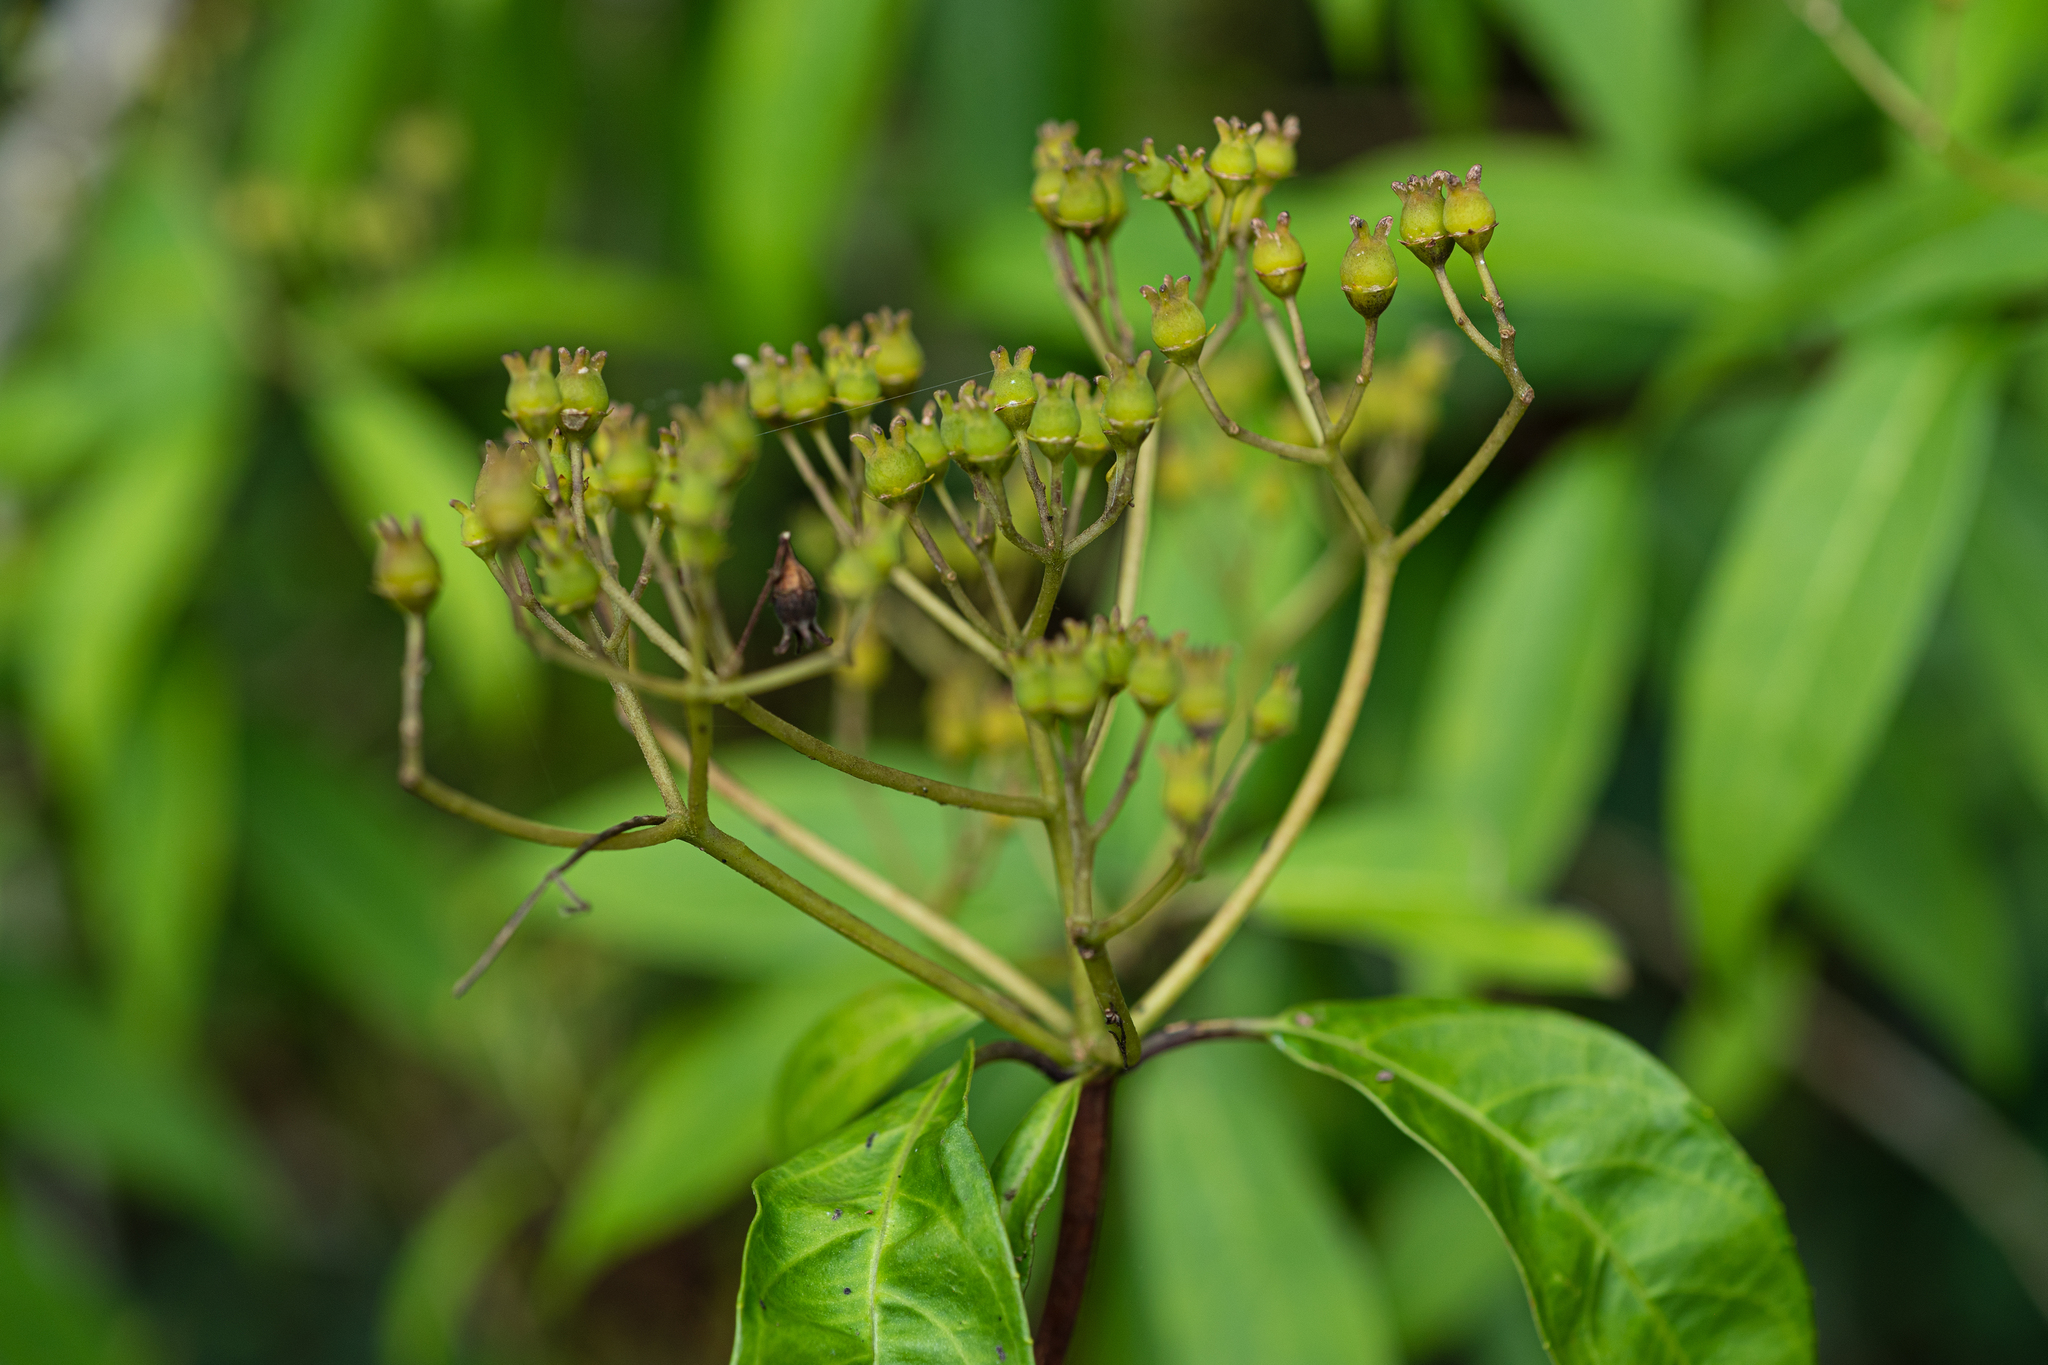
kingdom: Plantae
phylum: Tracheophyta
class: Magnoliopsida
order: Cornales
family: Hydrangeaceae
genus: Hydrangea
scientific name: Hydrangea chinensis
